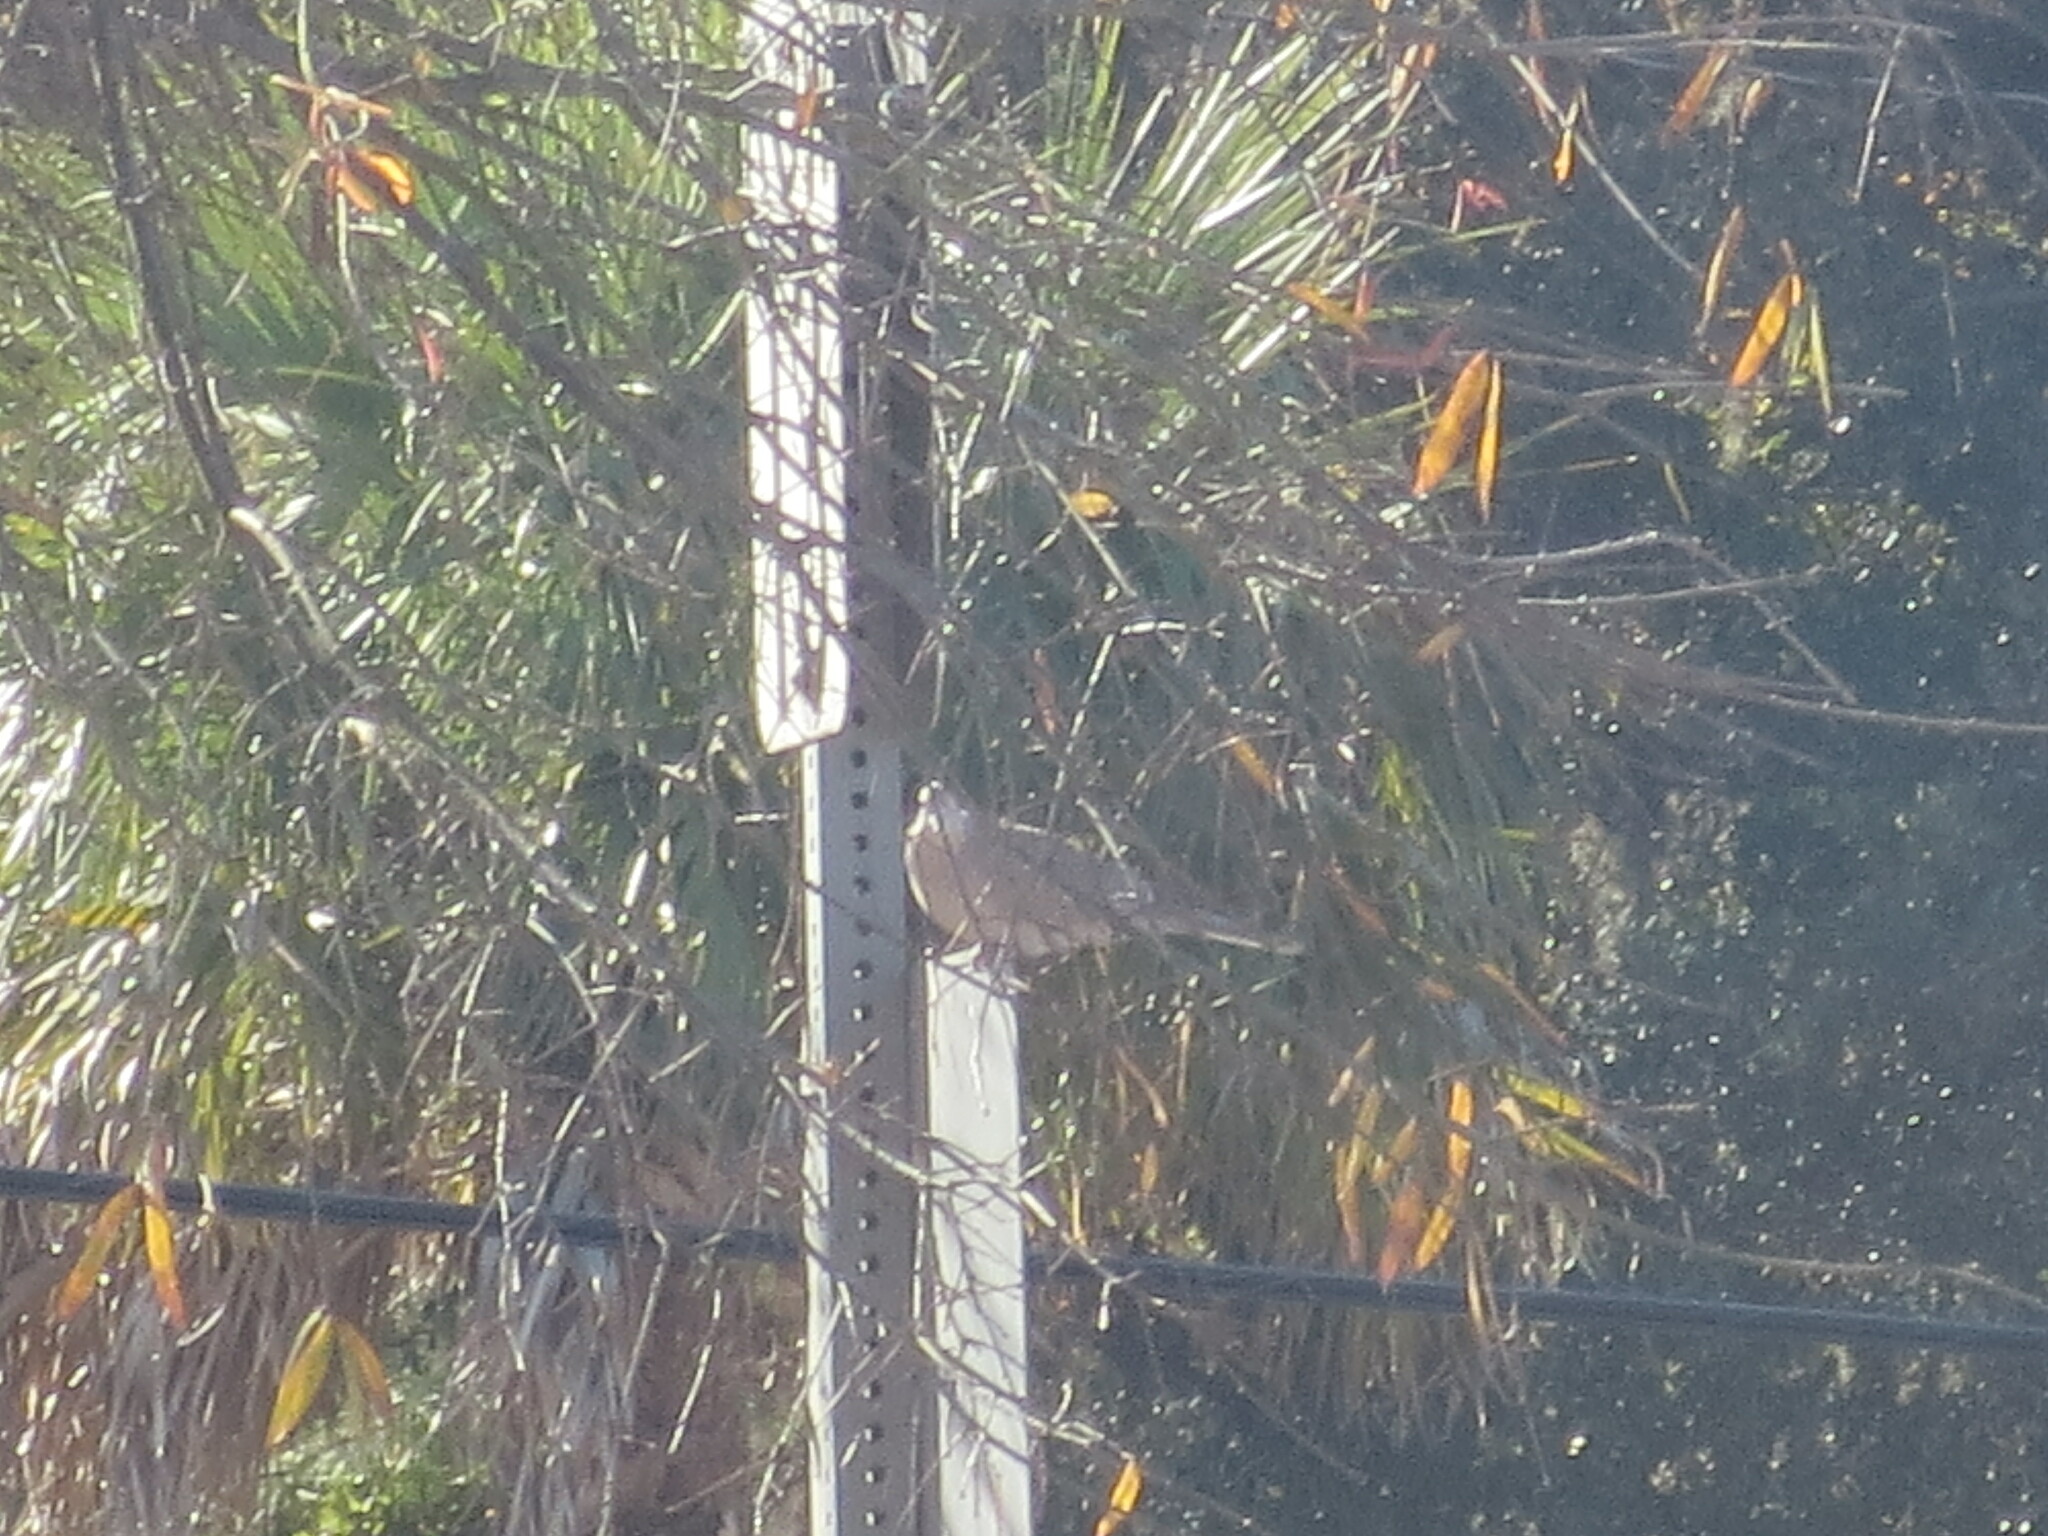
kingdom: Animalia
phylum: Chordata
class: Aves
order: Columbiformes
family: Columbidae
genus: Zenaida
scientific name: Zenaida macroura
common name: Mourning dove
